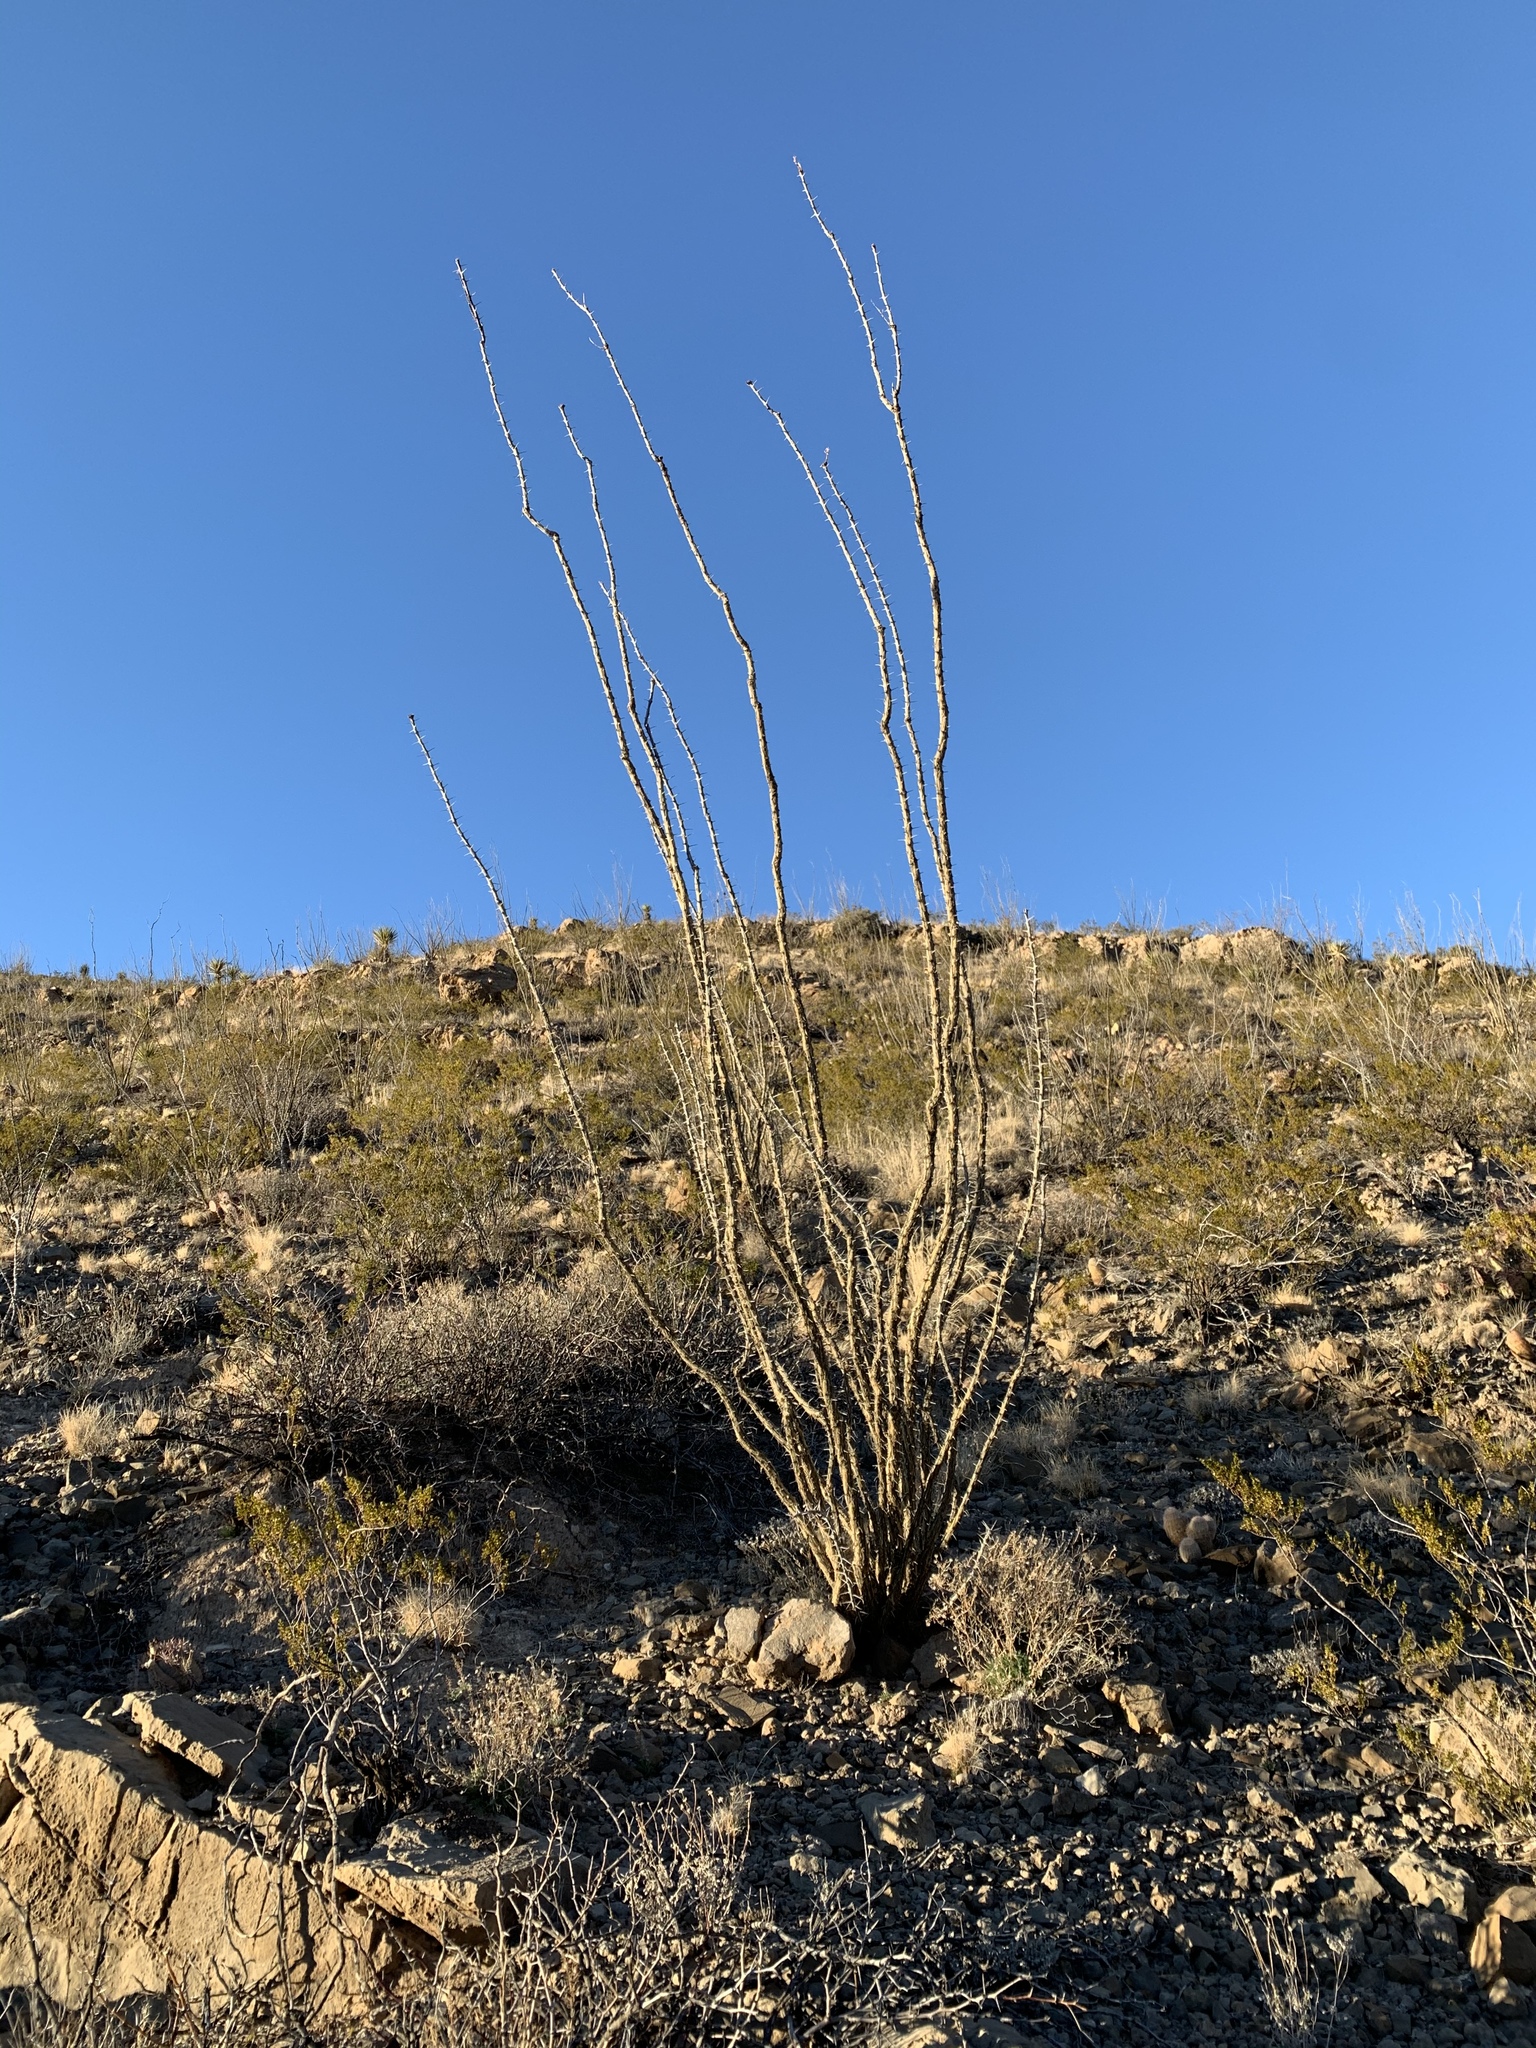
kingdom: Plantae
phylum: Tracheophyta
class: Magnoliopsida
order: Ericales
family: Fouquieriaceae
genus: Fouquieria
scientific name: Fouquieria splendens
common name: Vine-cactus
